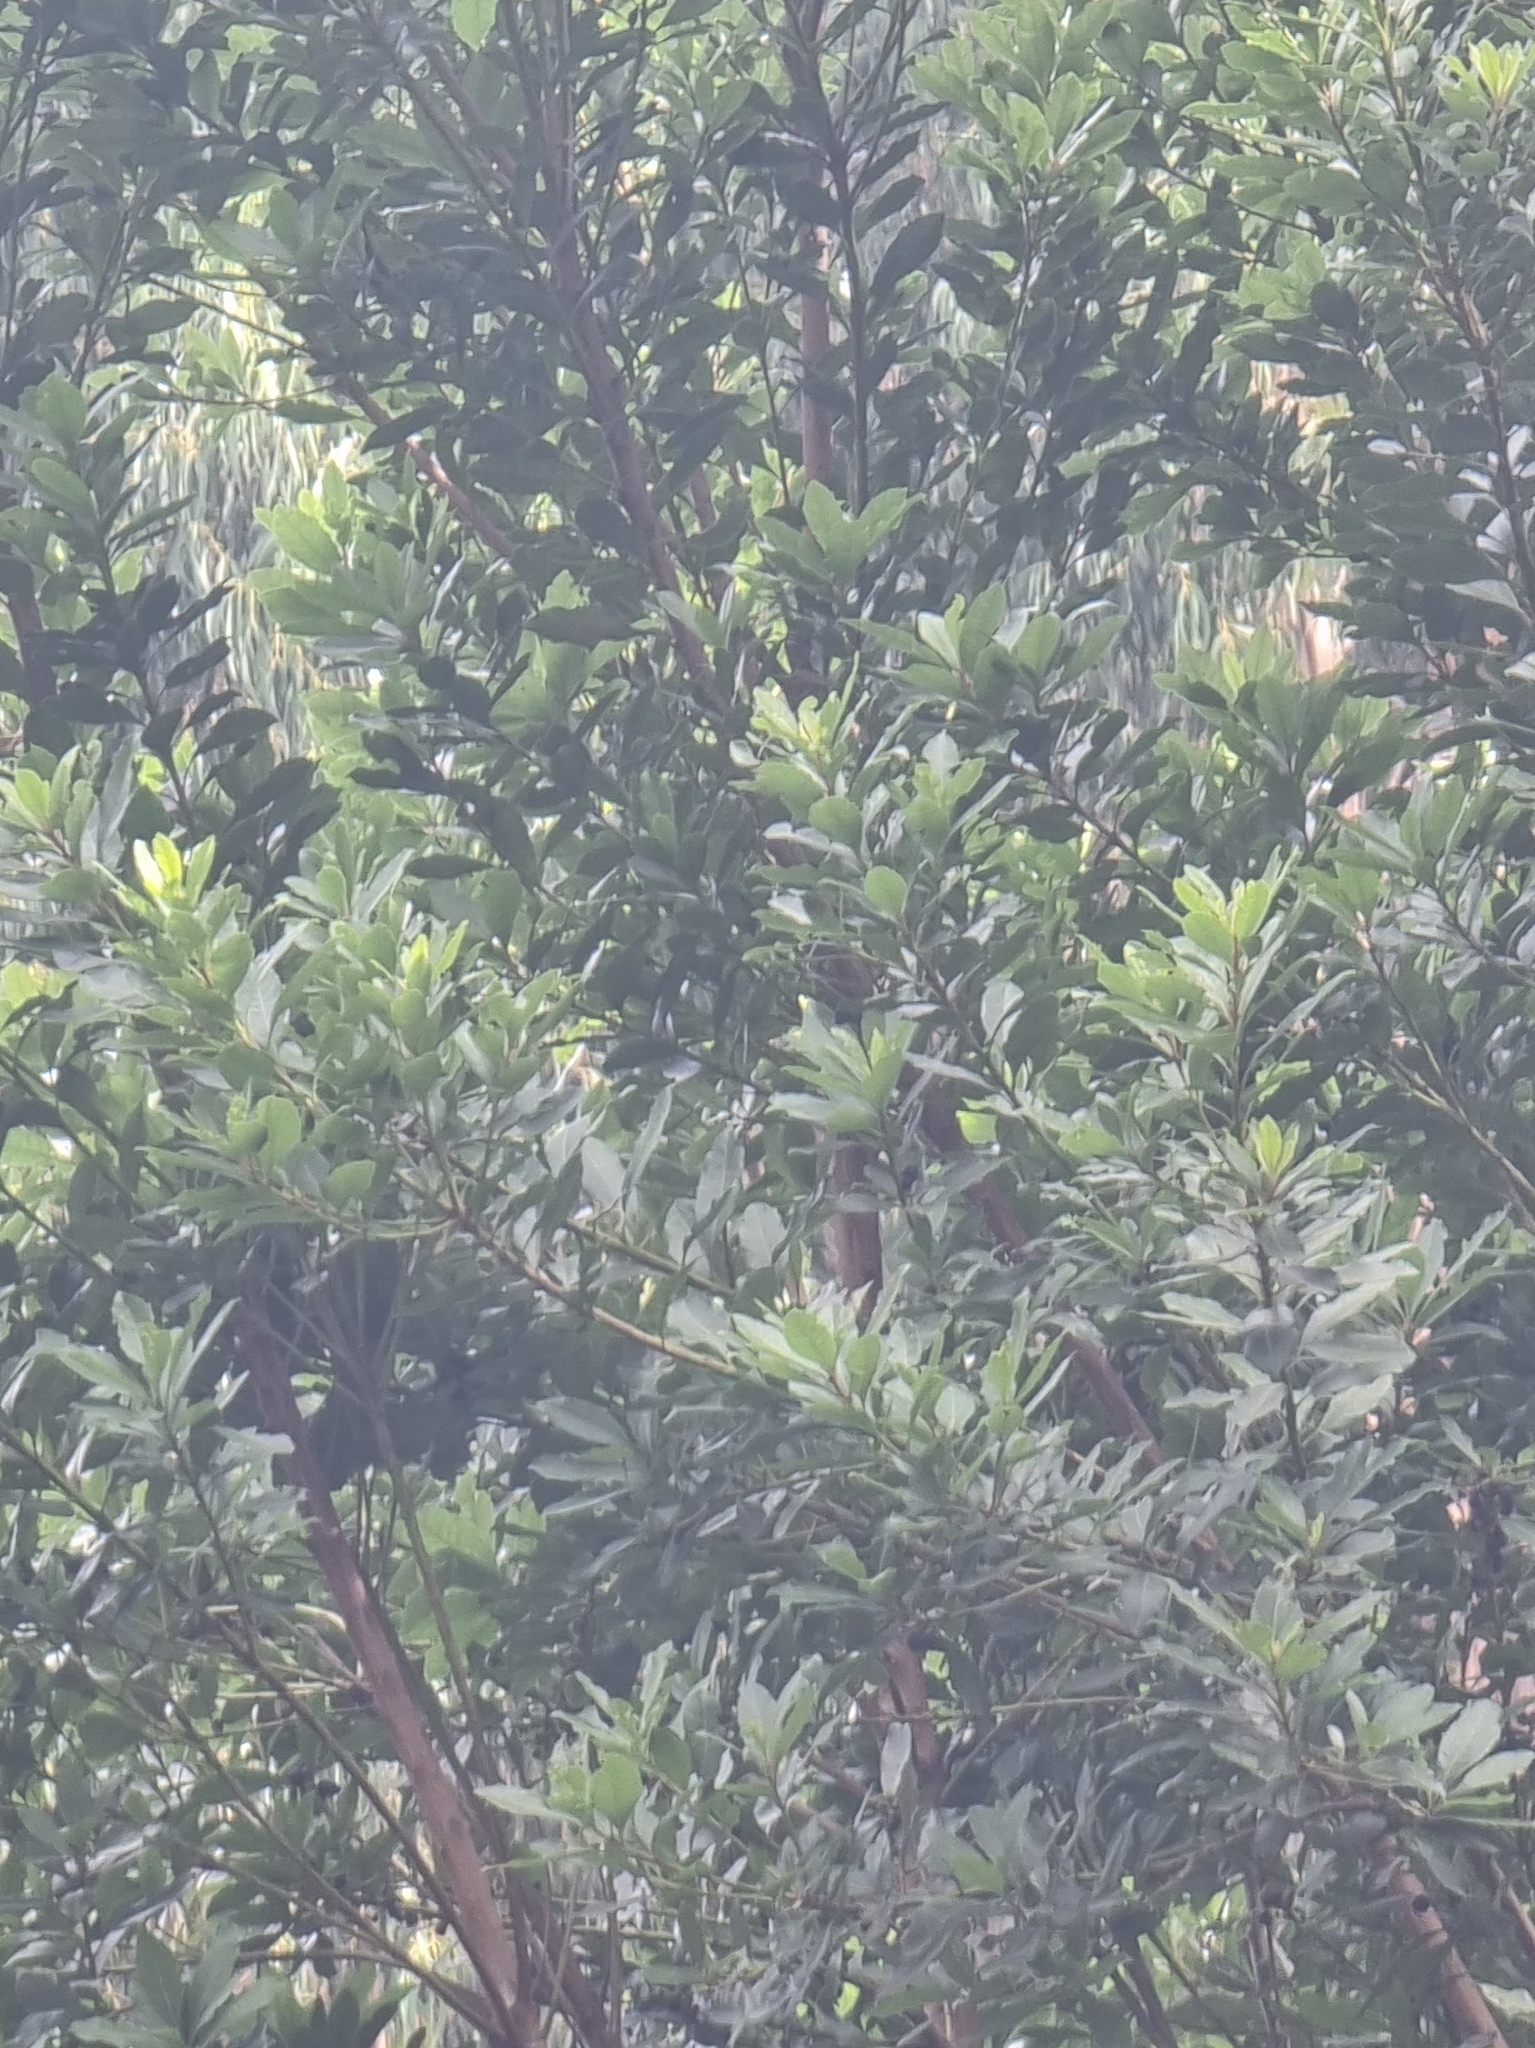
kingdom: Plantae
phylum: Tracheophyta
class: Magnoliopsida
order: Laurales
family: Lauraceae
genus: Laurus
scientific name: Laurus novocanariensis
